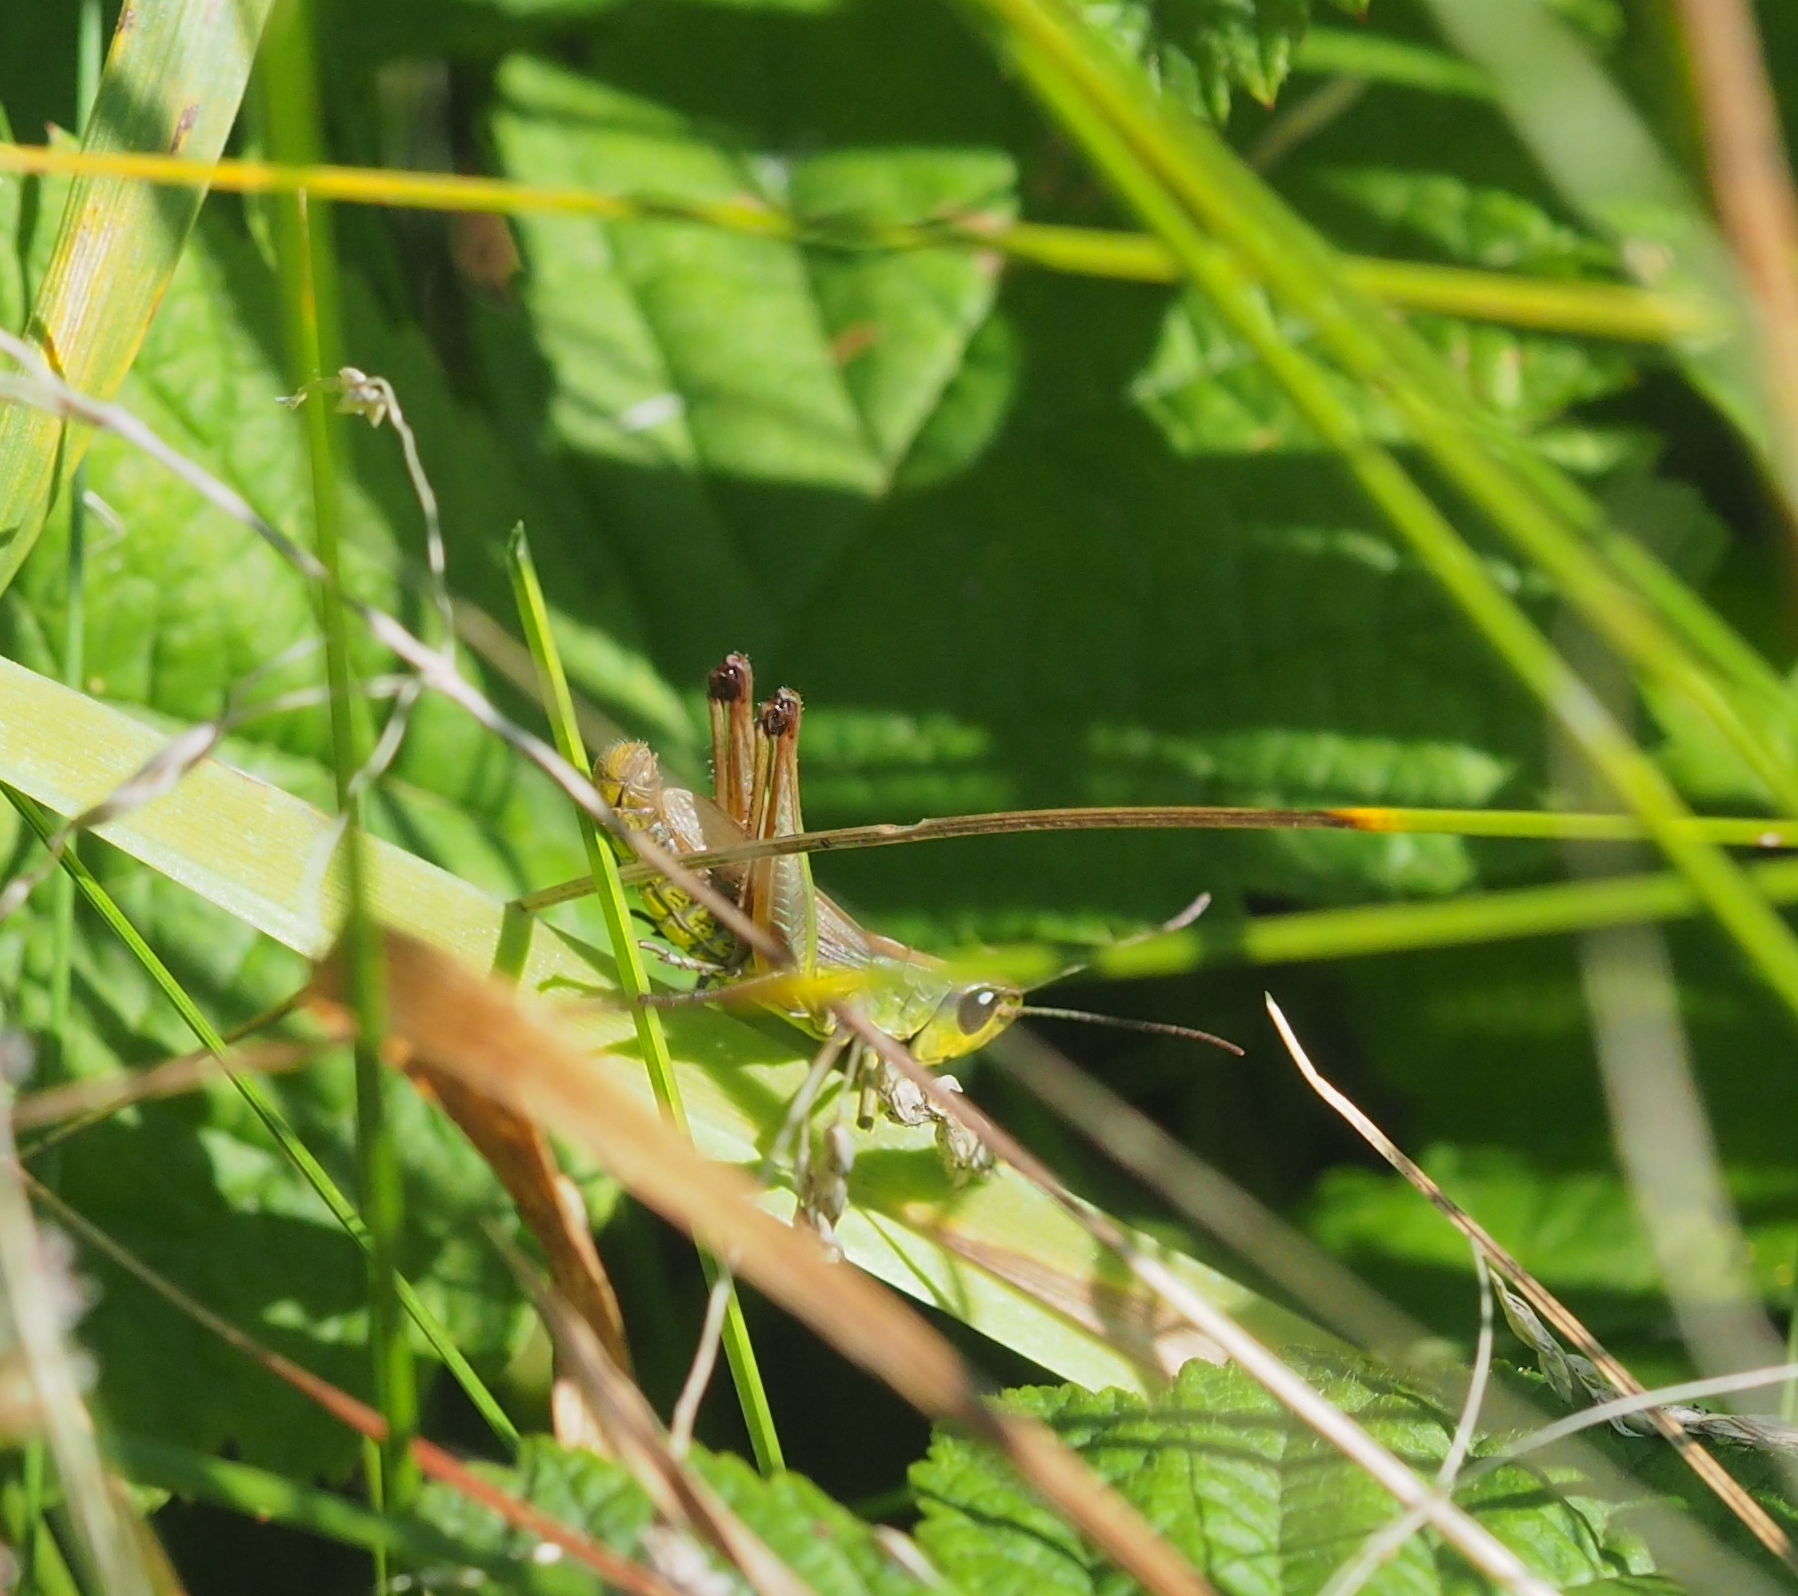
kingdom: Animalia
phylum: Arthropoda
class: Insecta
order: Orthoptera
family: Acrididae
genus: Pseudochorthippus
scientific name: Pseudochorthippus parallelus
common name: Meadow grasshopper
